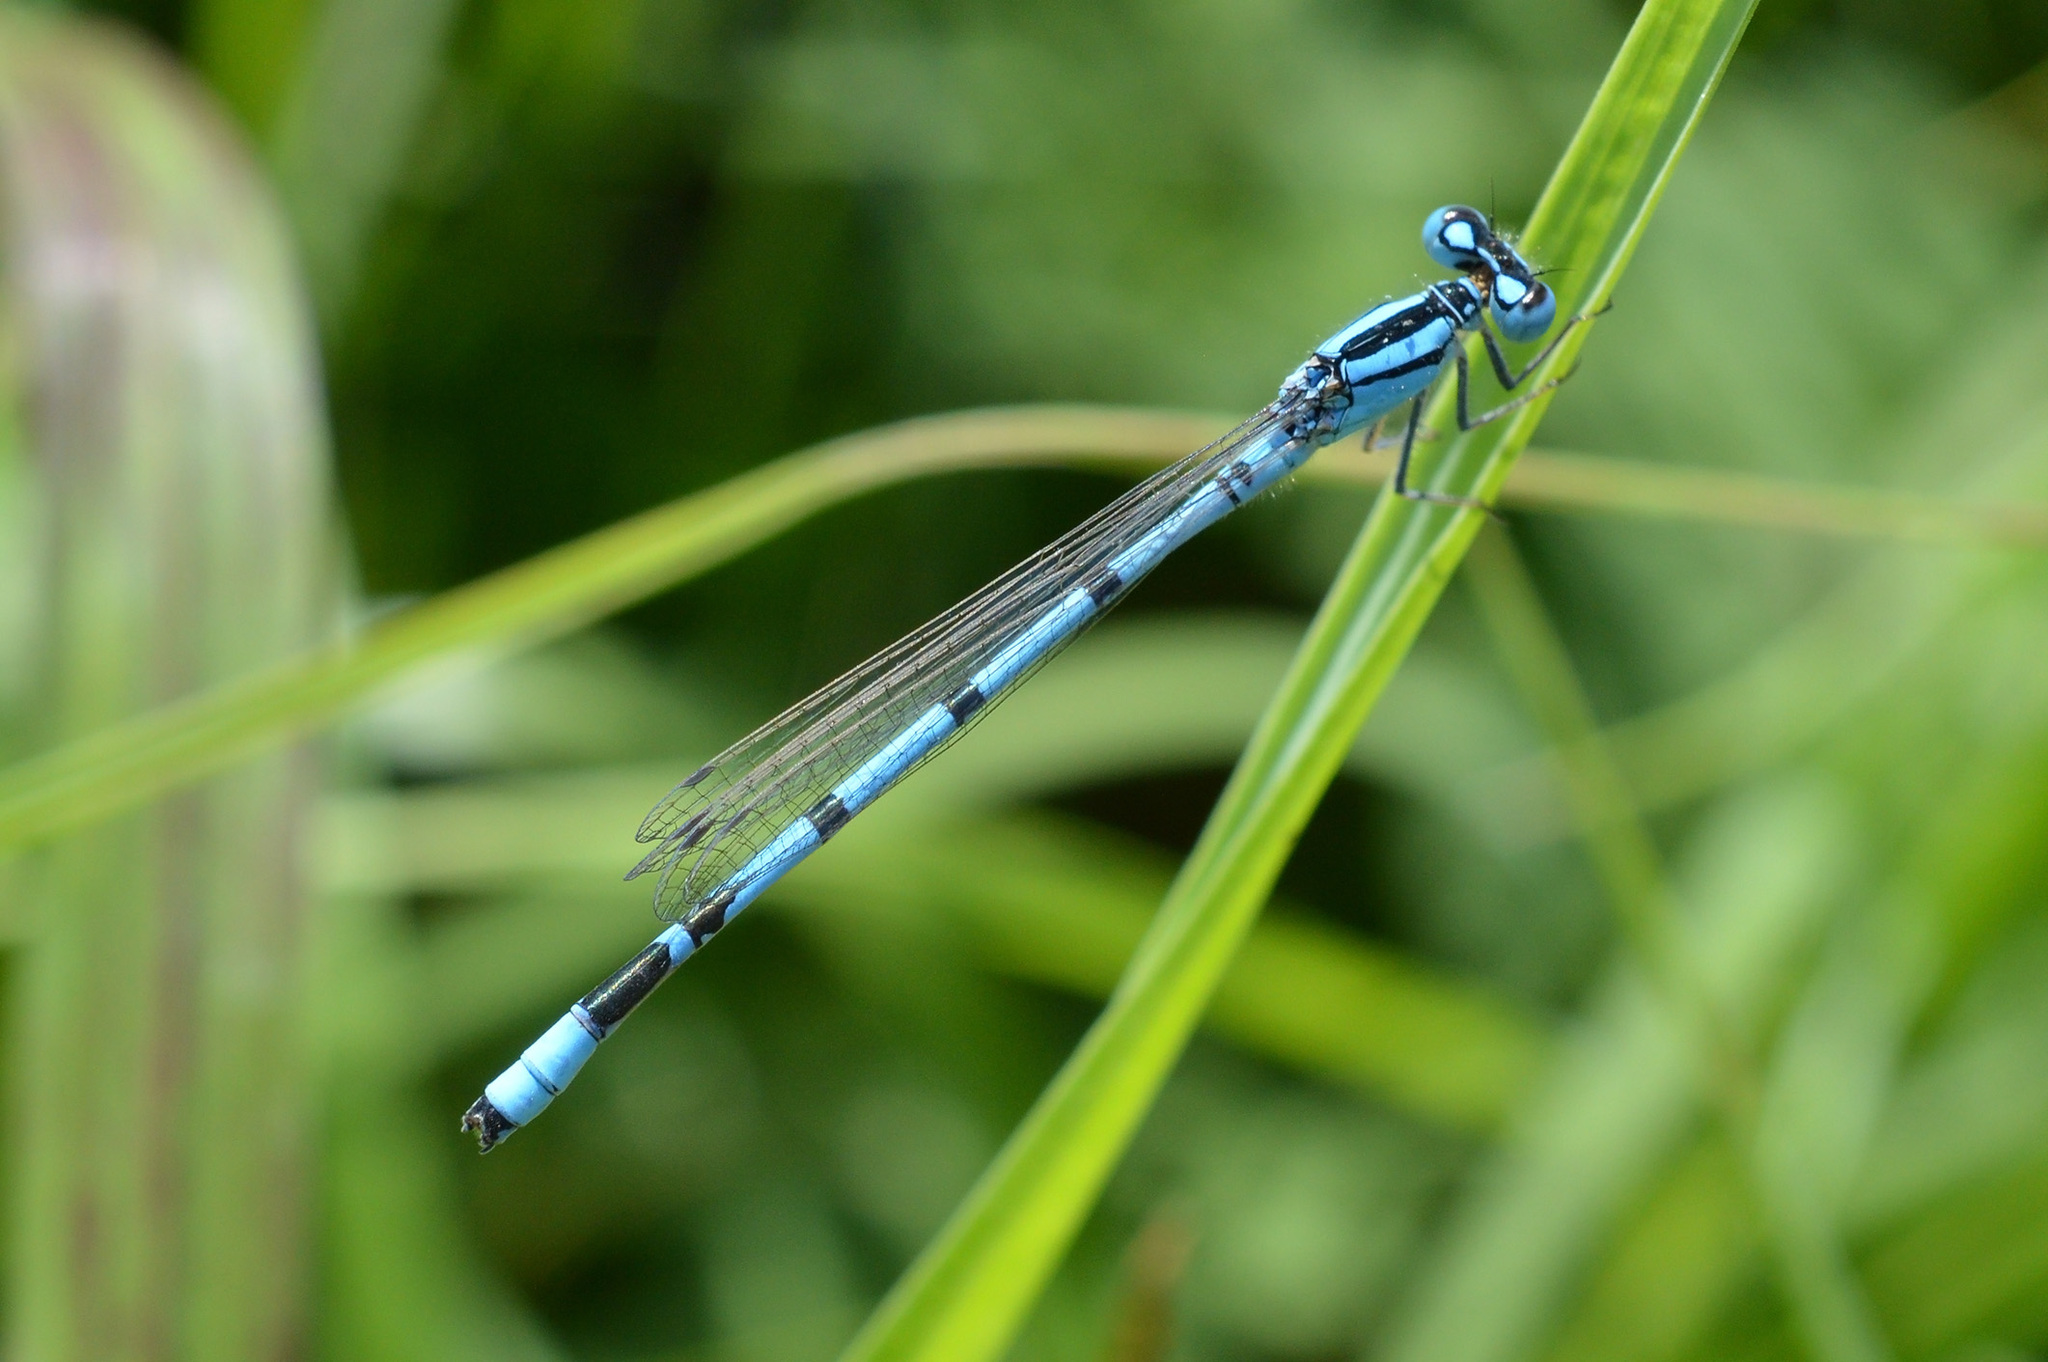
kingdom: Animalia
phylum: Arthropoda
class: Insecta
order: Odonata
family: Coenagrionidae
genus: Enallagma
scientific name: Enallagma cyathigerum
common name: Common blue damselfly
